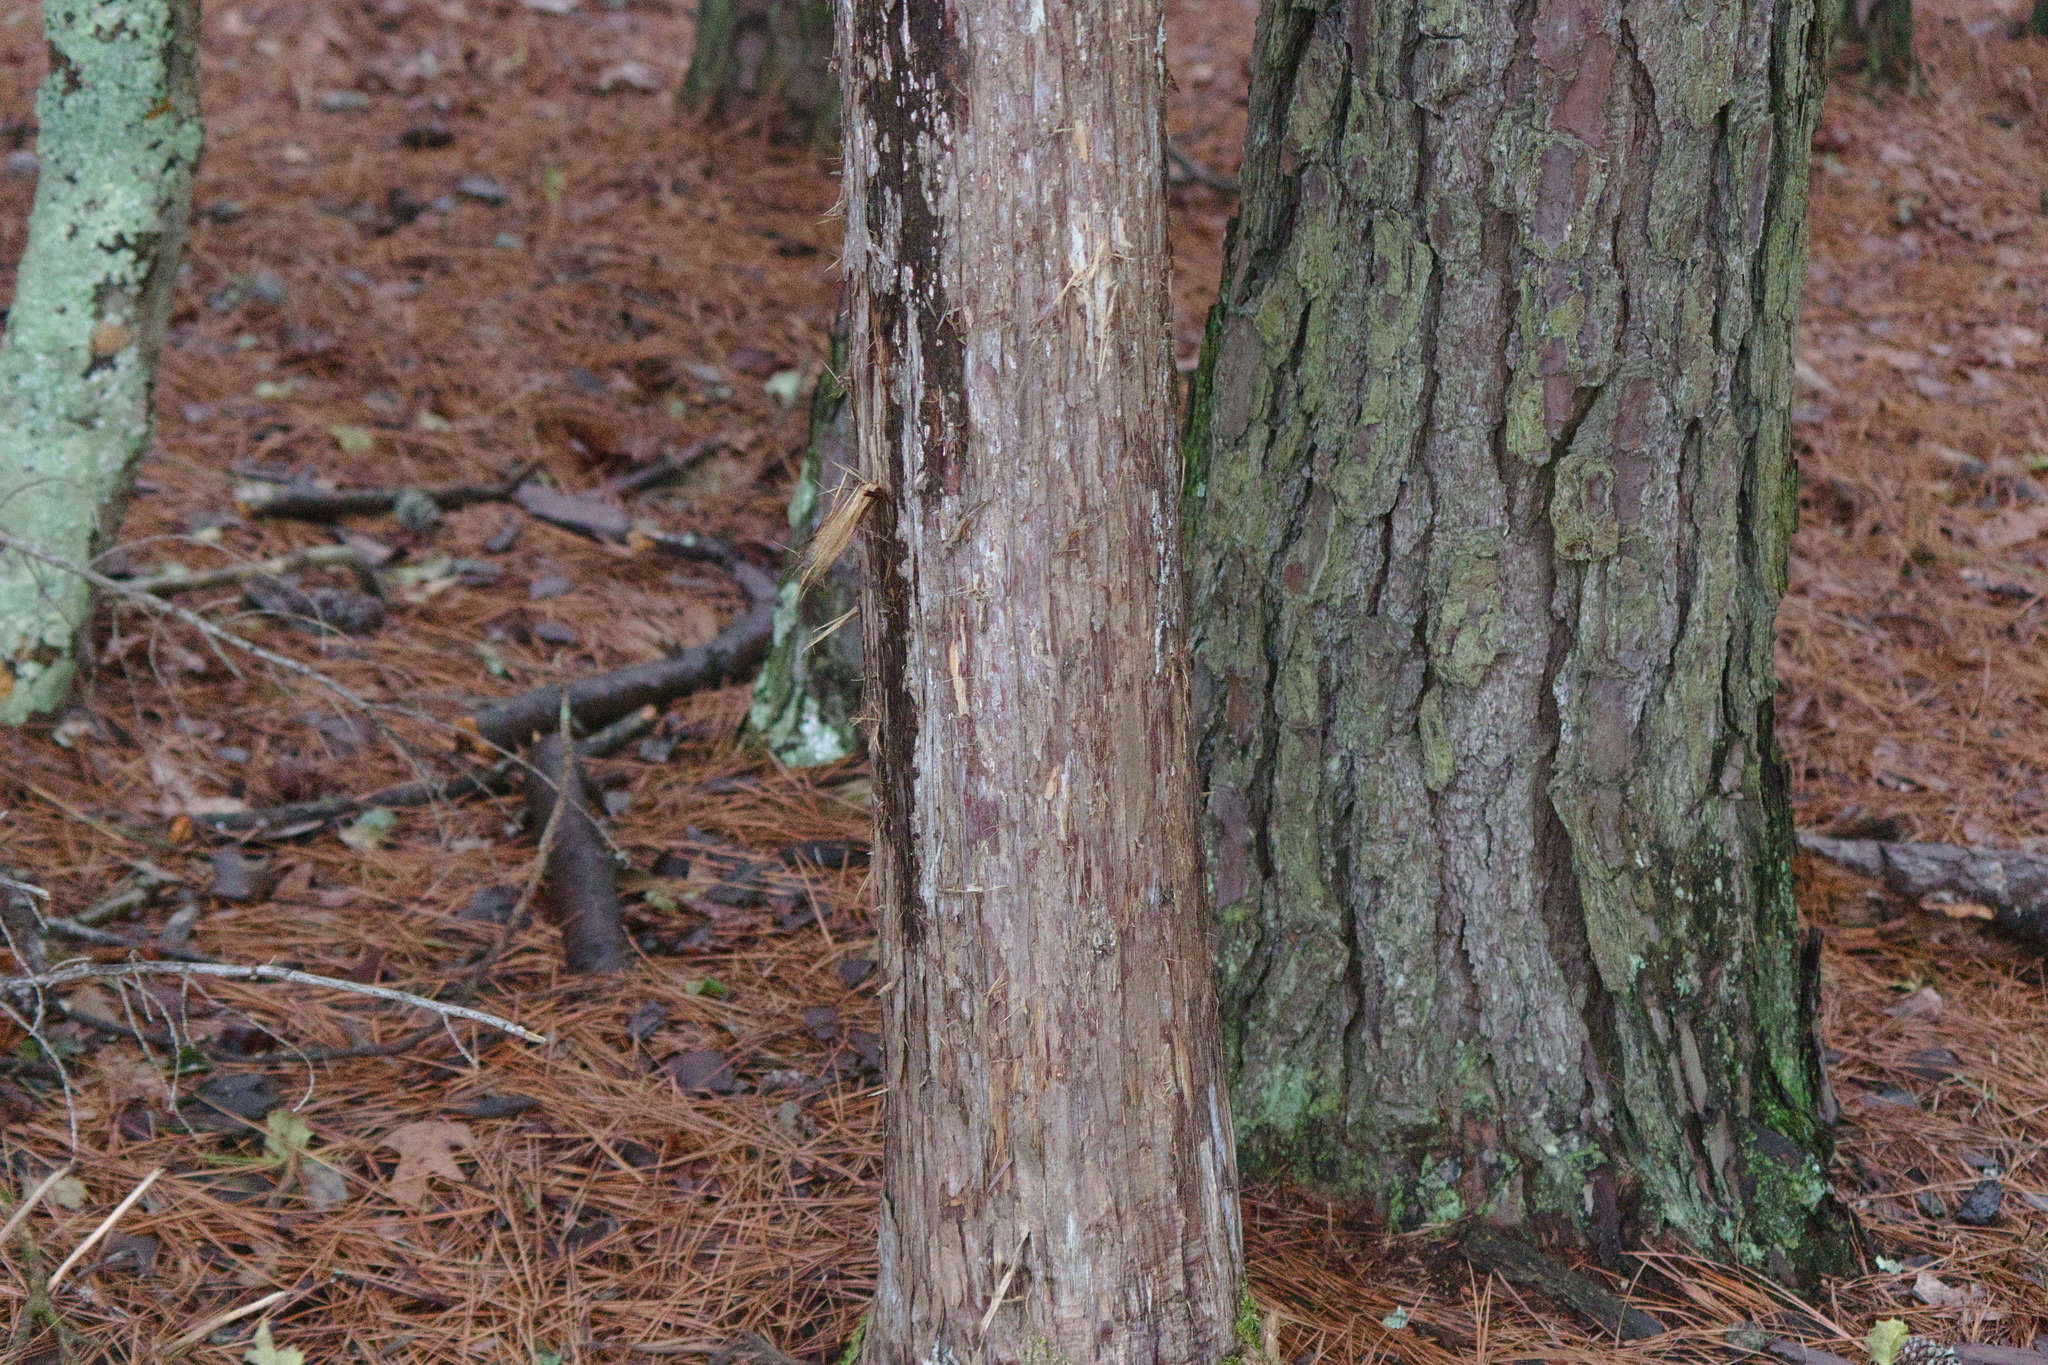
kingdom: Plantae
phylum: Tracheophyta
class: Pinopsida
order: Pinales
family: Cupressaceae
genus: Juniperus
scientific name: Juniperus virginiana
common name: Red juniper
